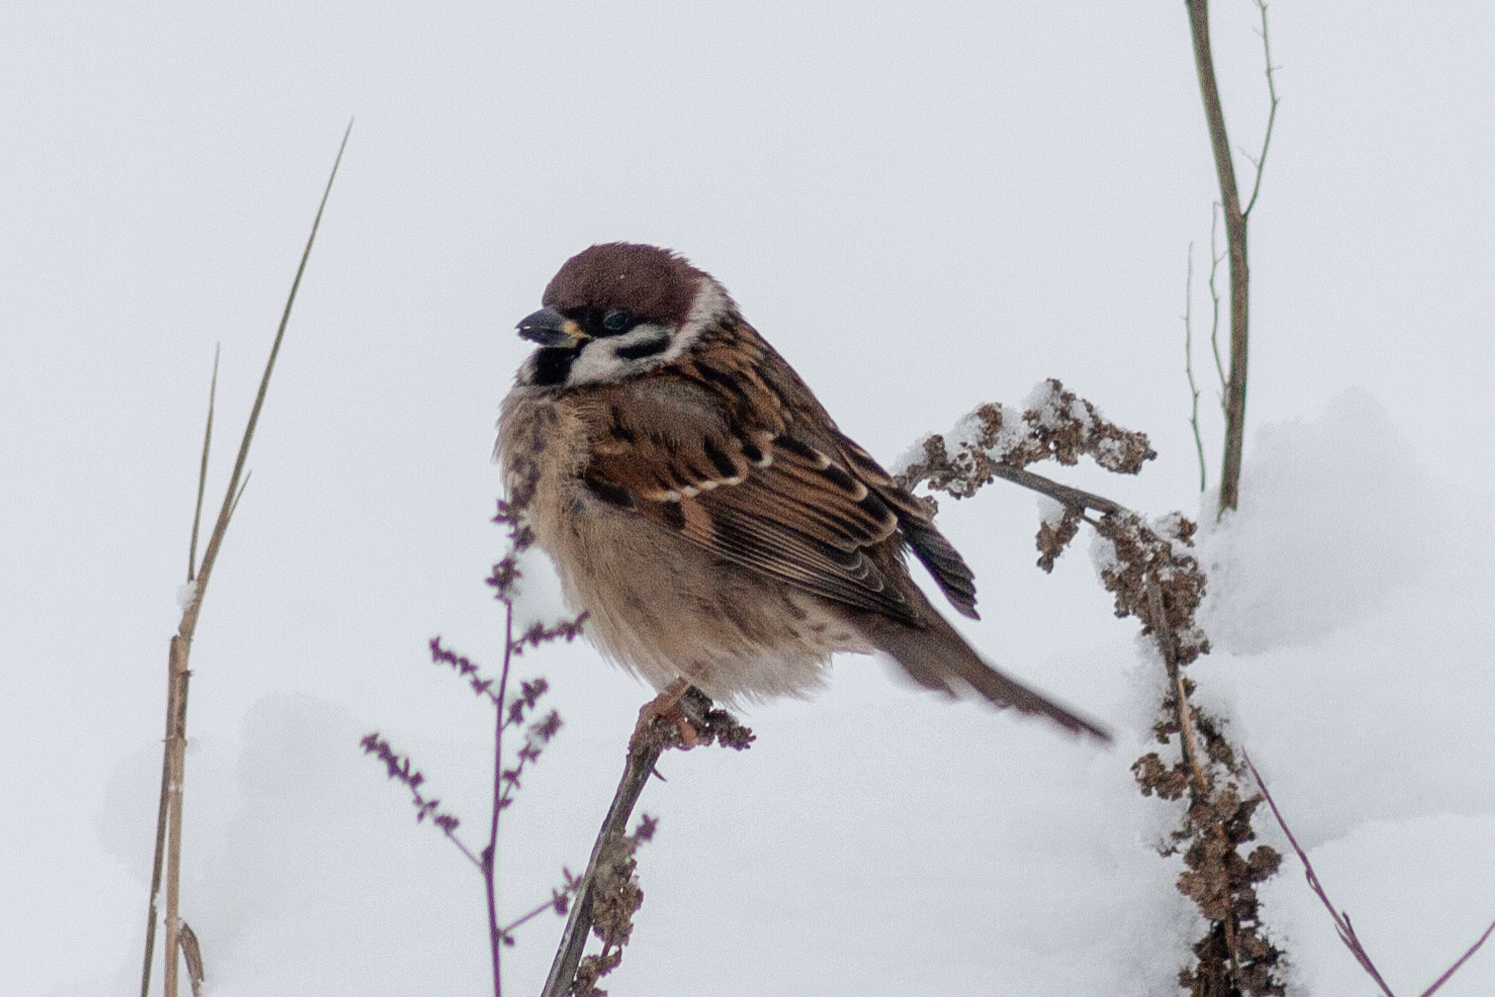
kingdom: Animalia
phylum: Chordata
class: Aves
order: Passeriformes
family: Passeridae
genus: Passer
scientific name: Passer montanus
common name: Eurasian tree sparrow
